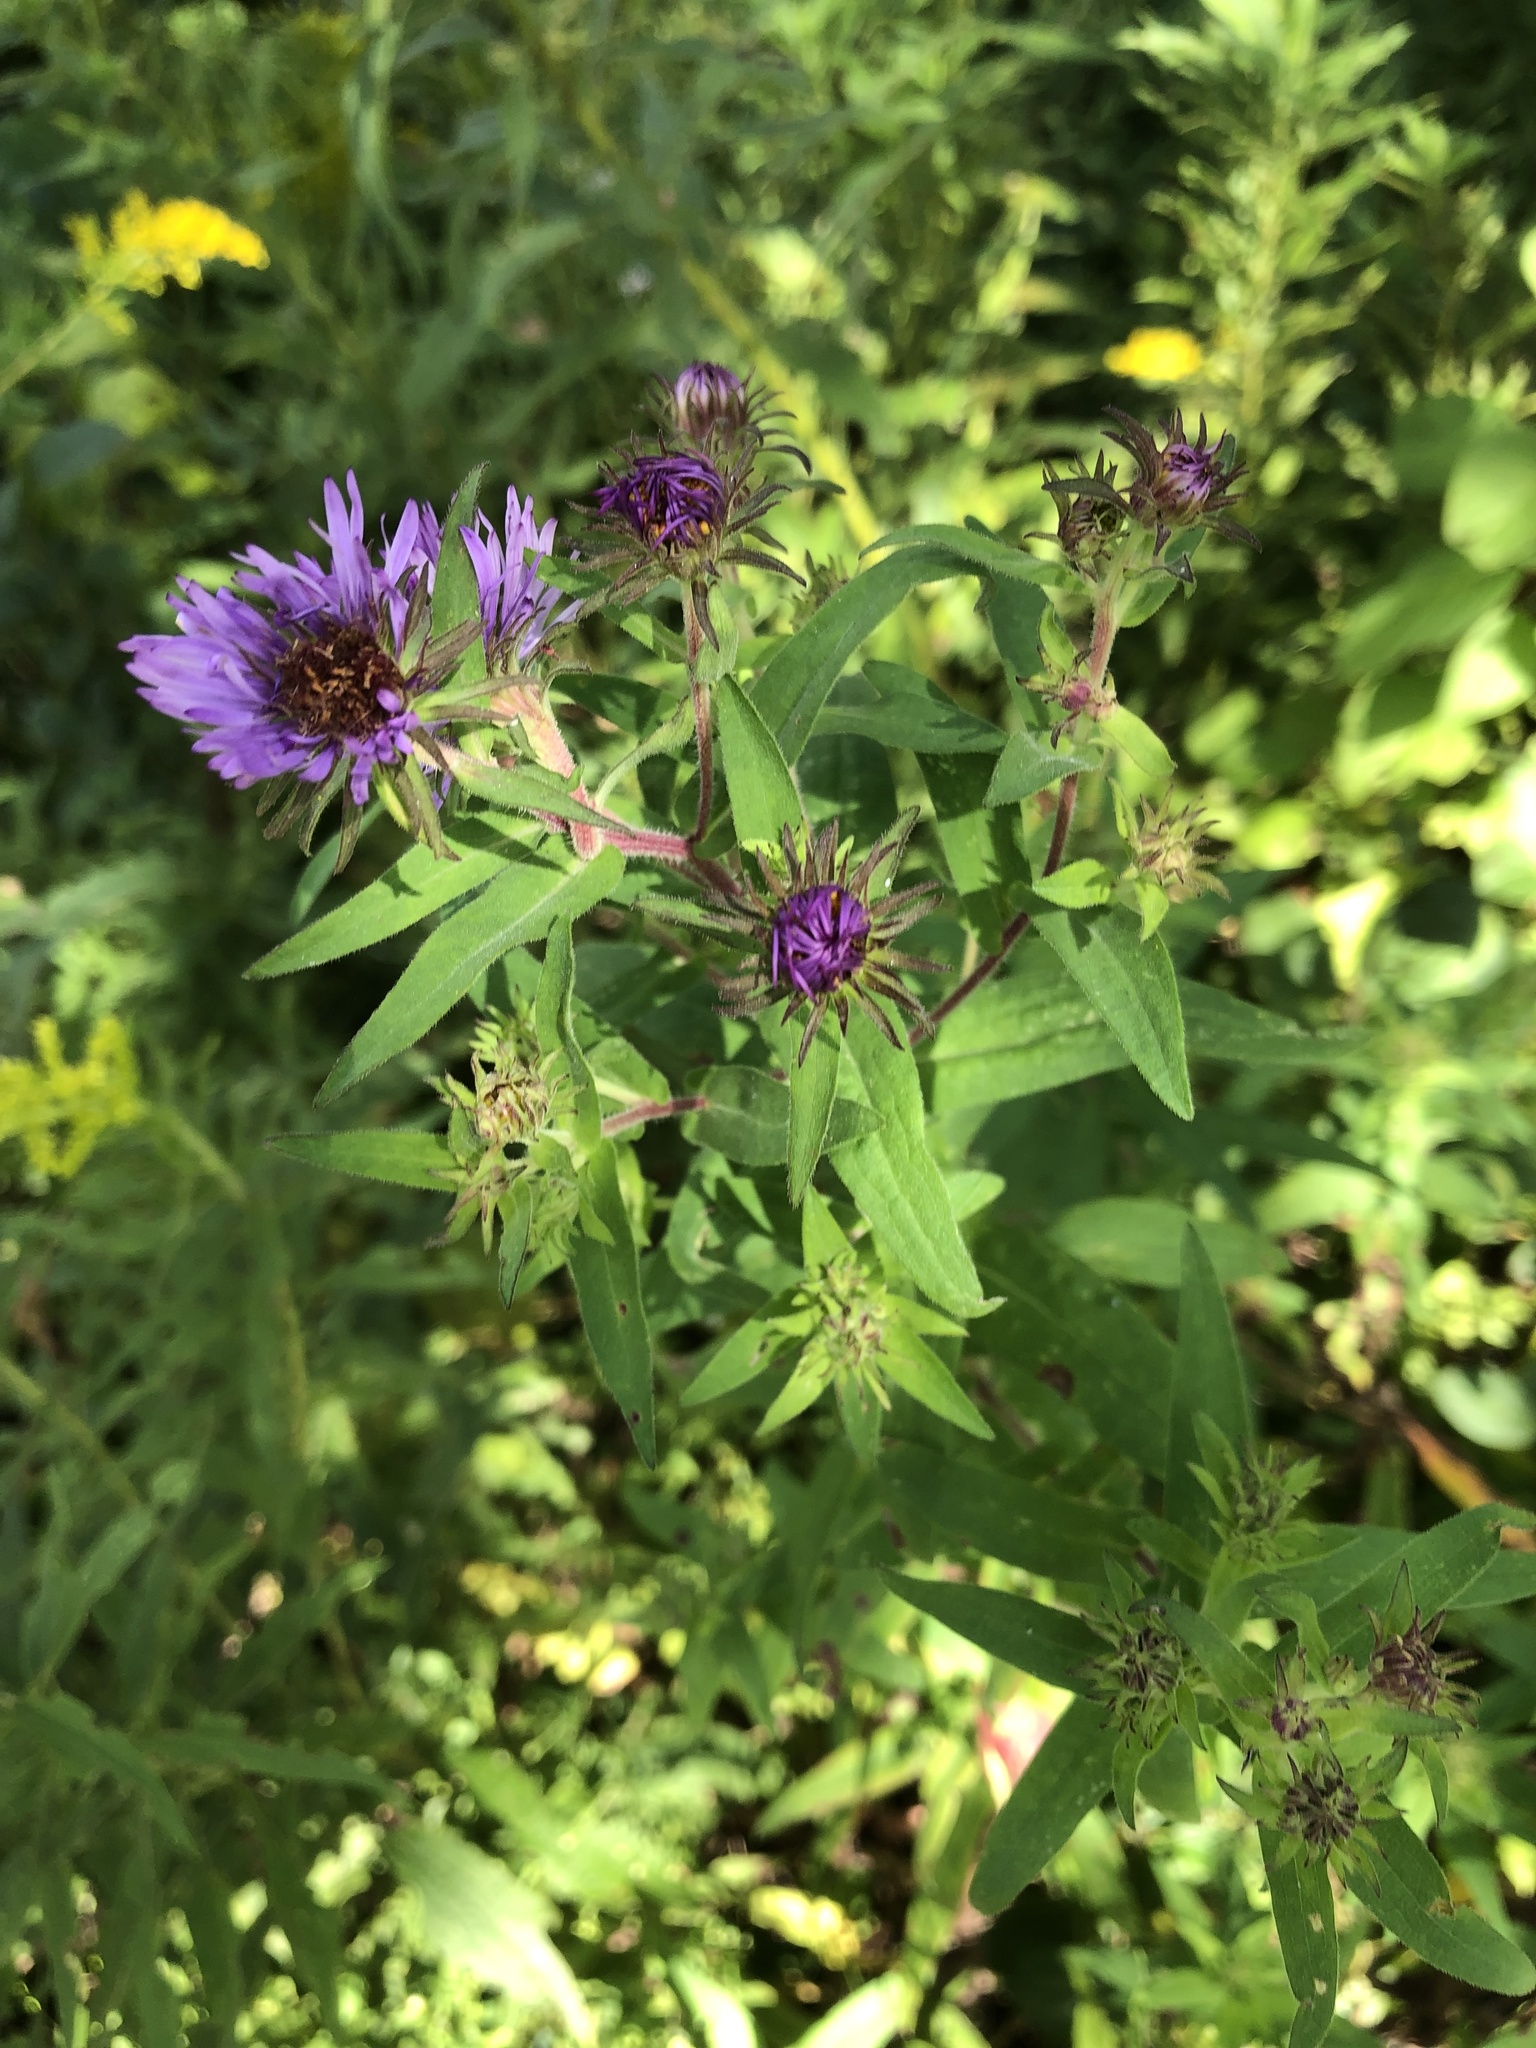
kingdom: Plantae
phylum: Tracheophyta
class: Magnoliopsida
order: Asterales
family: Asteraceae
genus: Symphyotrichum
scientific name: Symphyotrichum novae-angliae
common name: Michaelmas daisy
